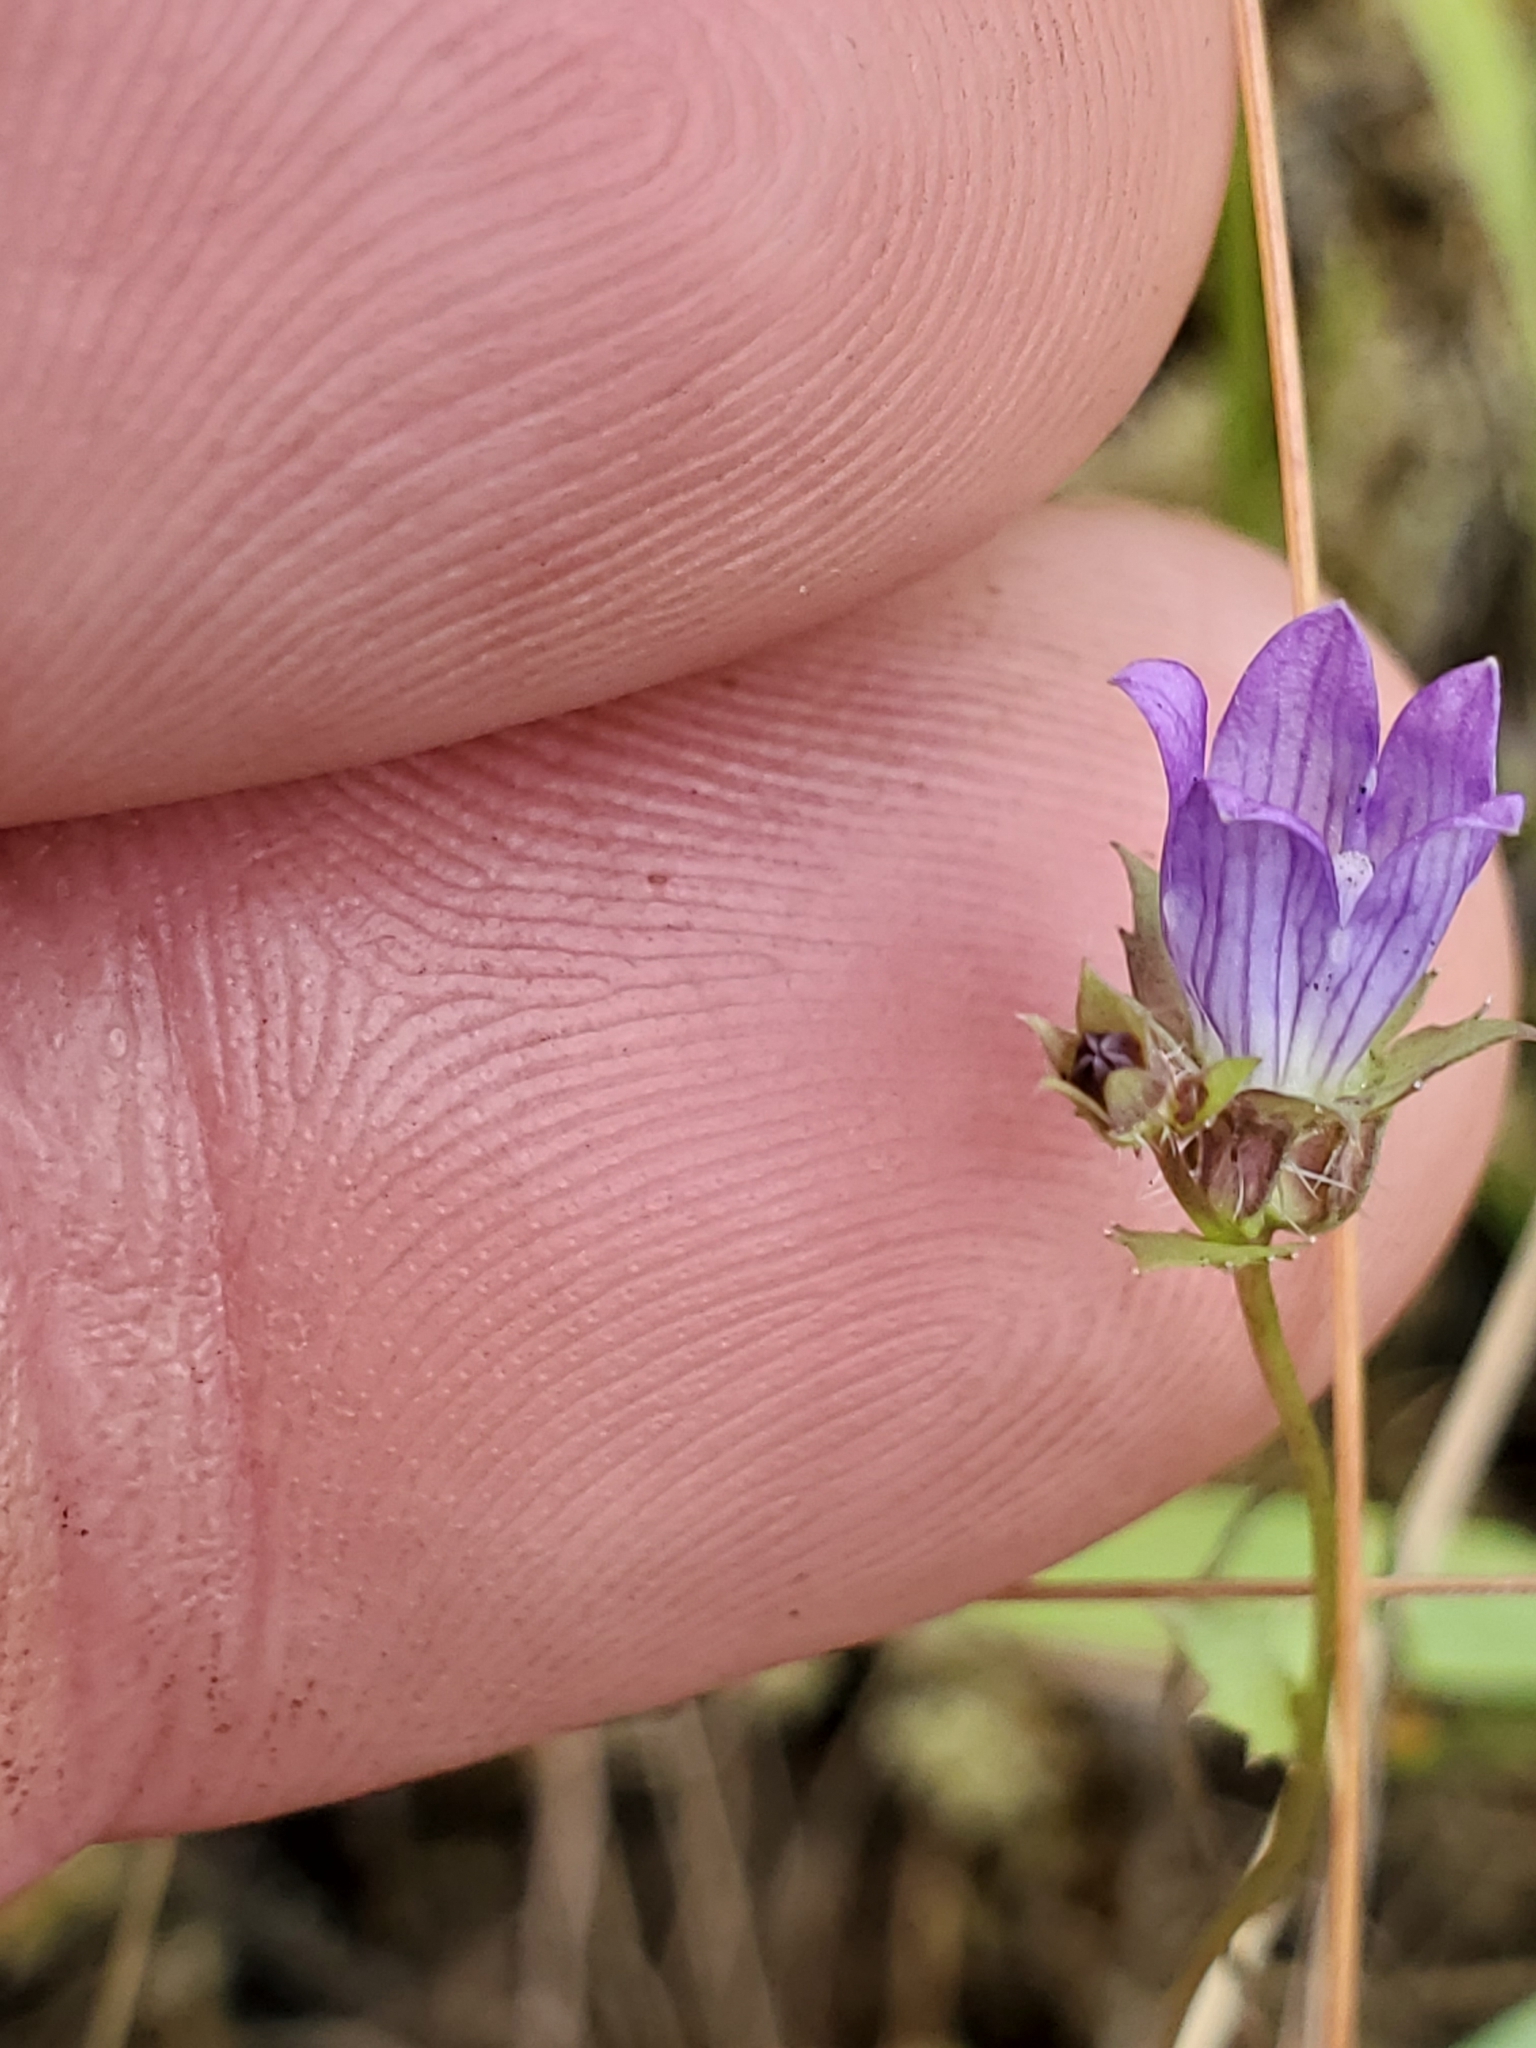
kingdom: Plantae
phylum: Tracheophyta
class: Magnoliopsida
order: Asterales
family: Campanulaceae
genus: Heterocodon
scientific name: Heterocodon rariflorum
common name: Rareflower heterocodon
